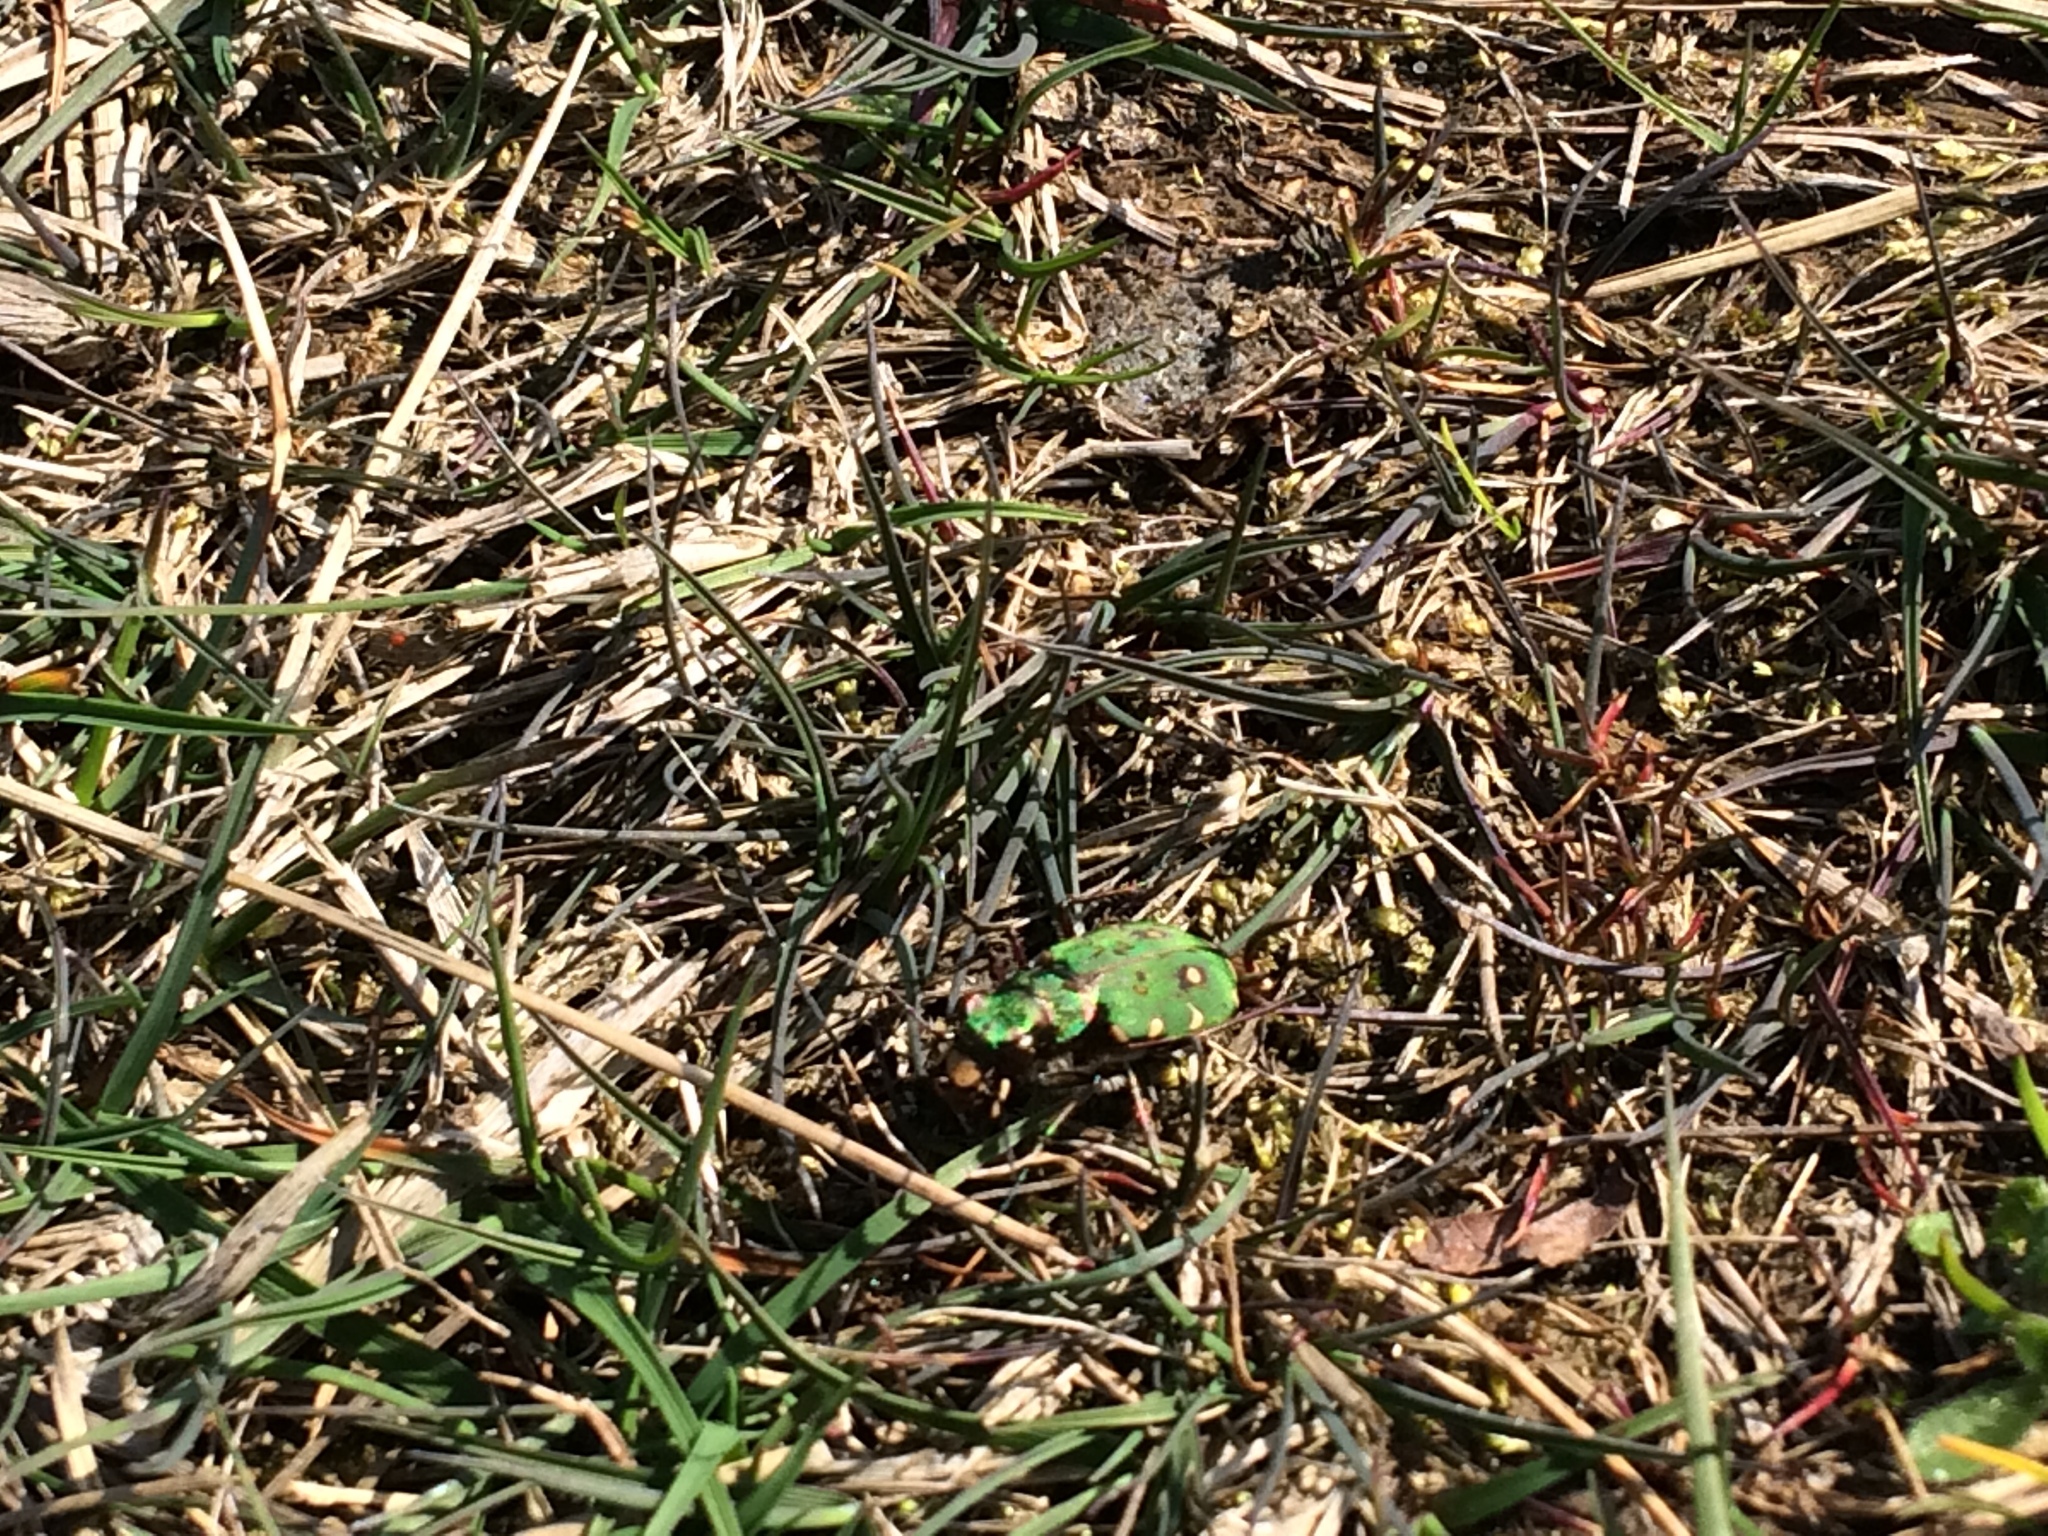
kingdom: Animalia
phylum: Arthropoda
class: Insecta
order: Coleoptera
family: Carabidae
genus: Cicindela
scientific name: Cicindela campestris
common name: Common tiger beetle
